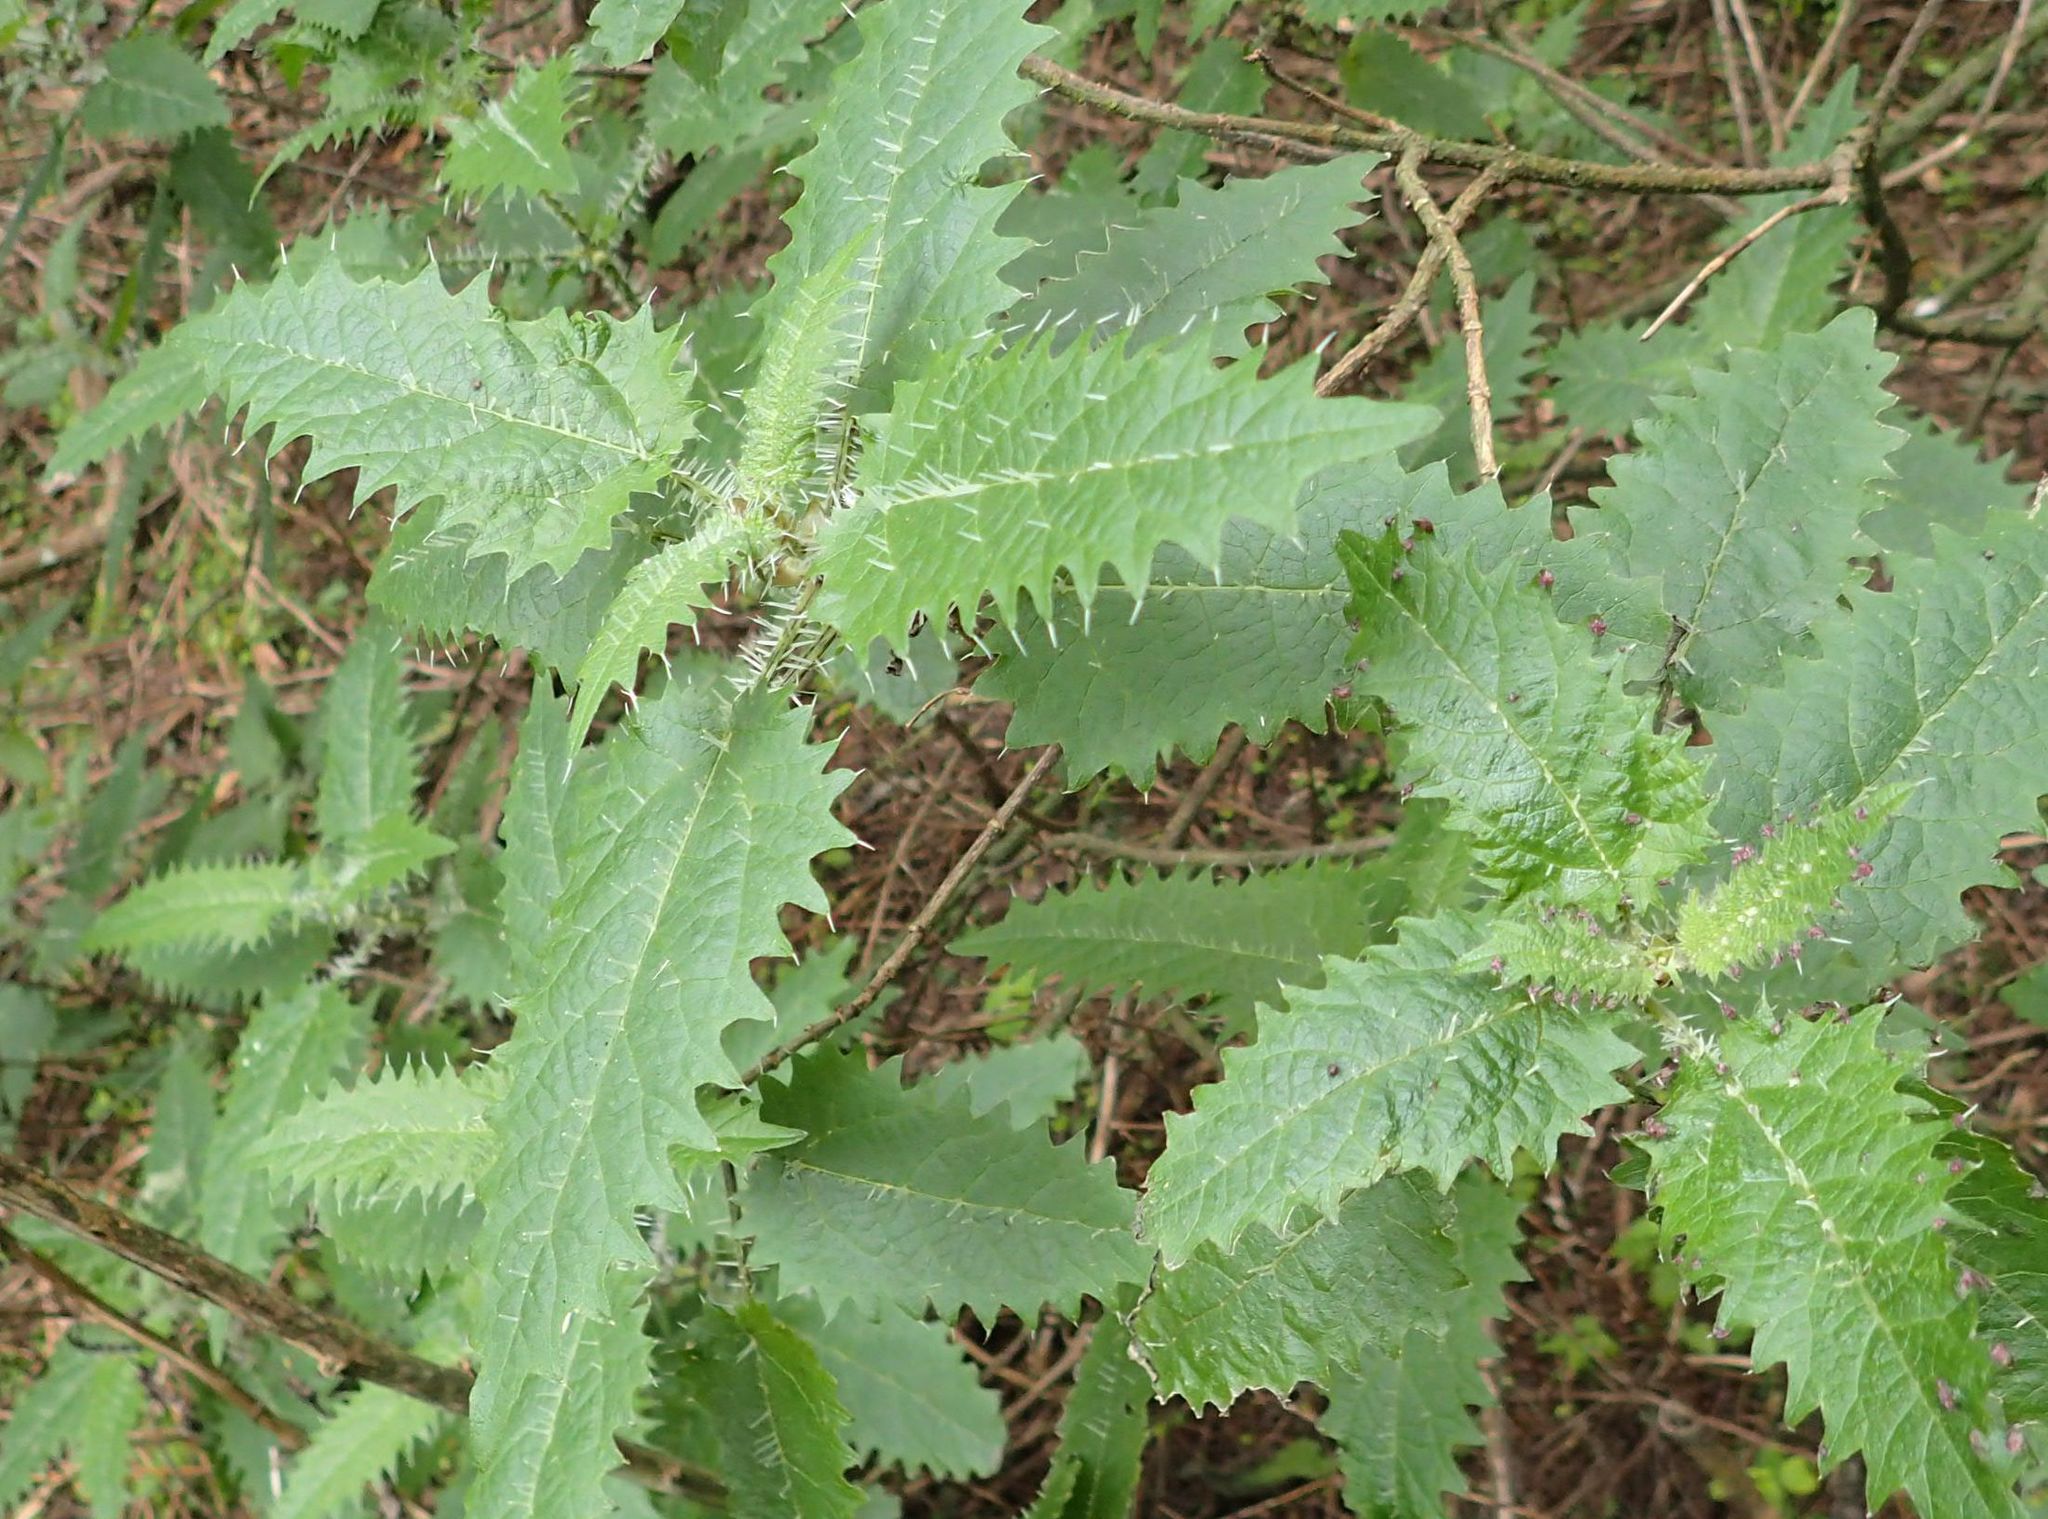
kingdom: Plantae
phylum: Tracheophyta
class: Magnoliopsida
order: Rosales
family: Urticaceae
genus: Urtica
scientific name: Urtica ferox
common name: Tree nettle
